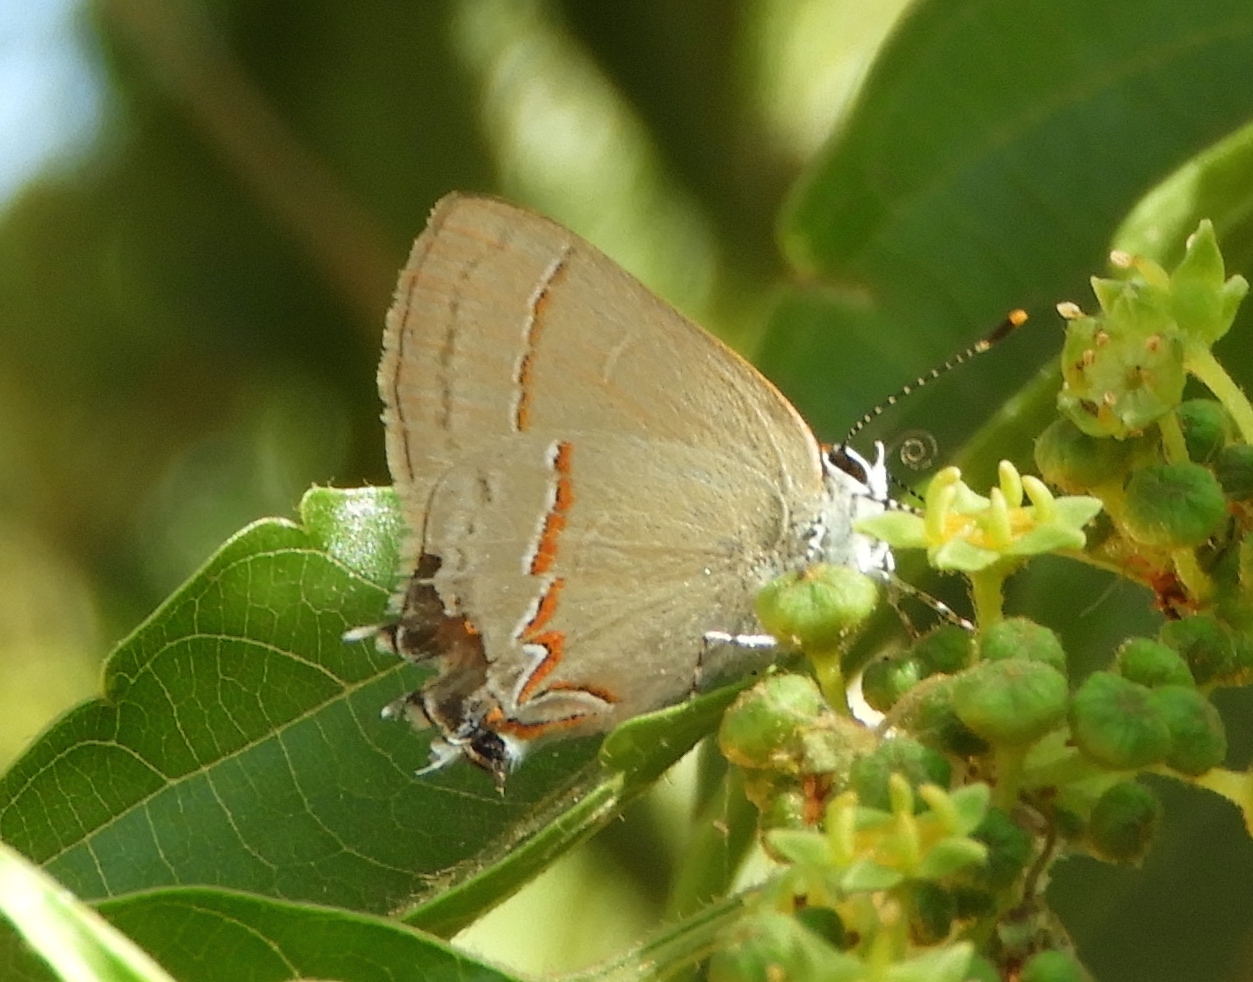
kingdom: Animalia
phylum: Arthropoda
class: Insecta
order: Lepidoptera
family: Lycaenidae
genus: Electrostrymon
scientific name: Electrostrymon endymion
